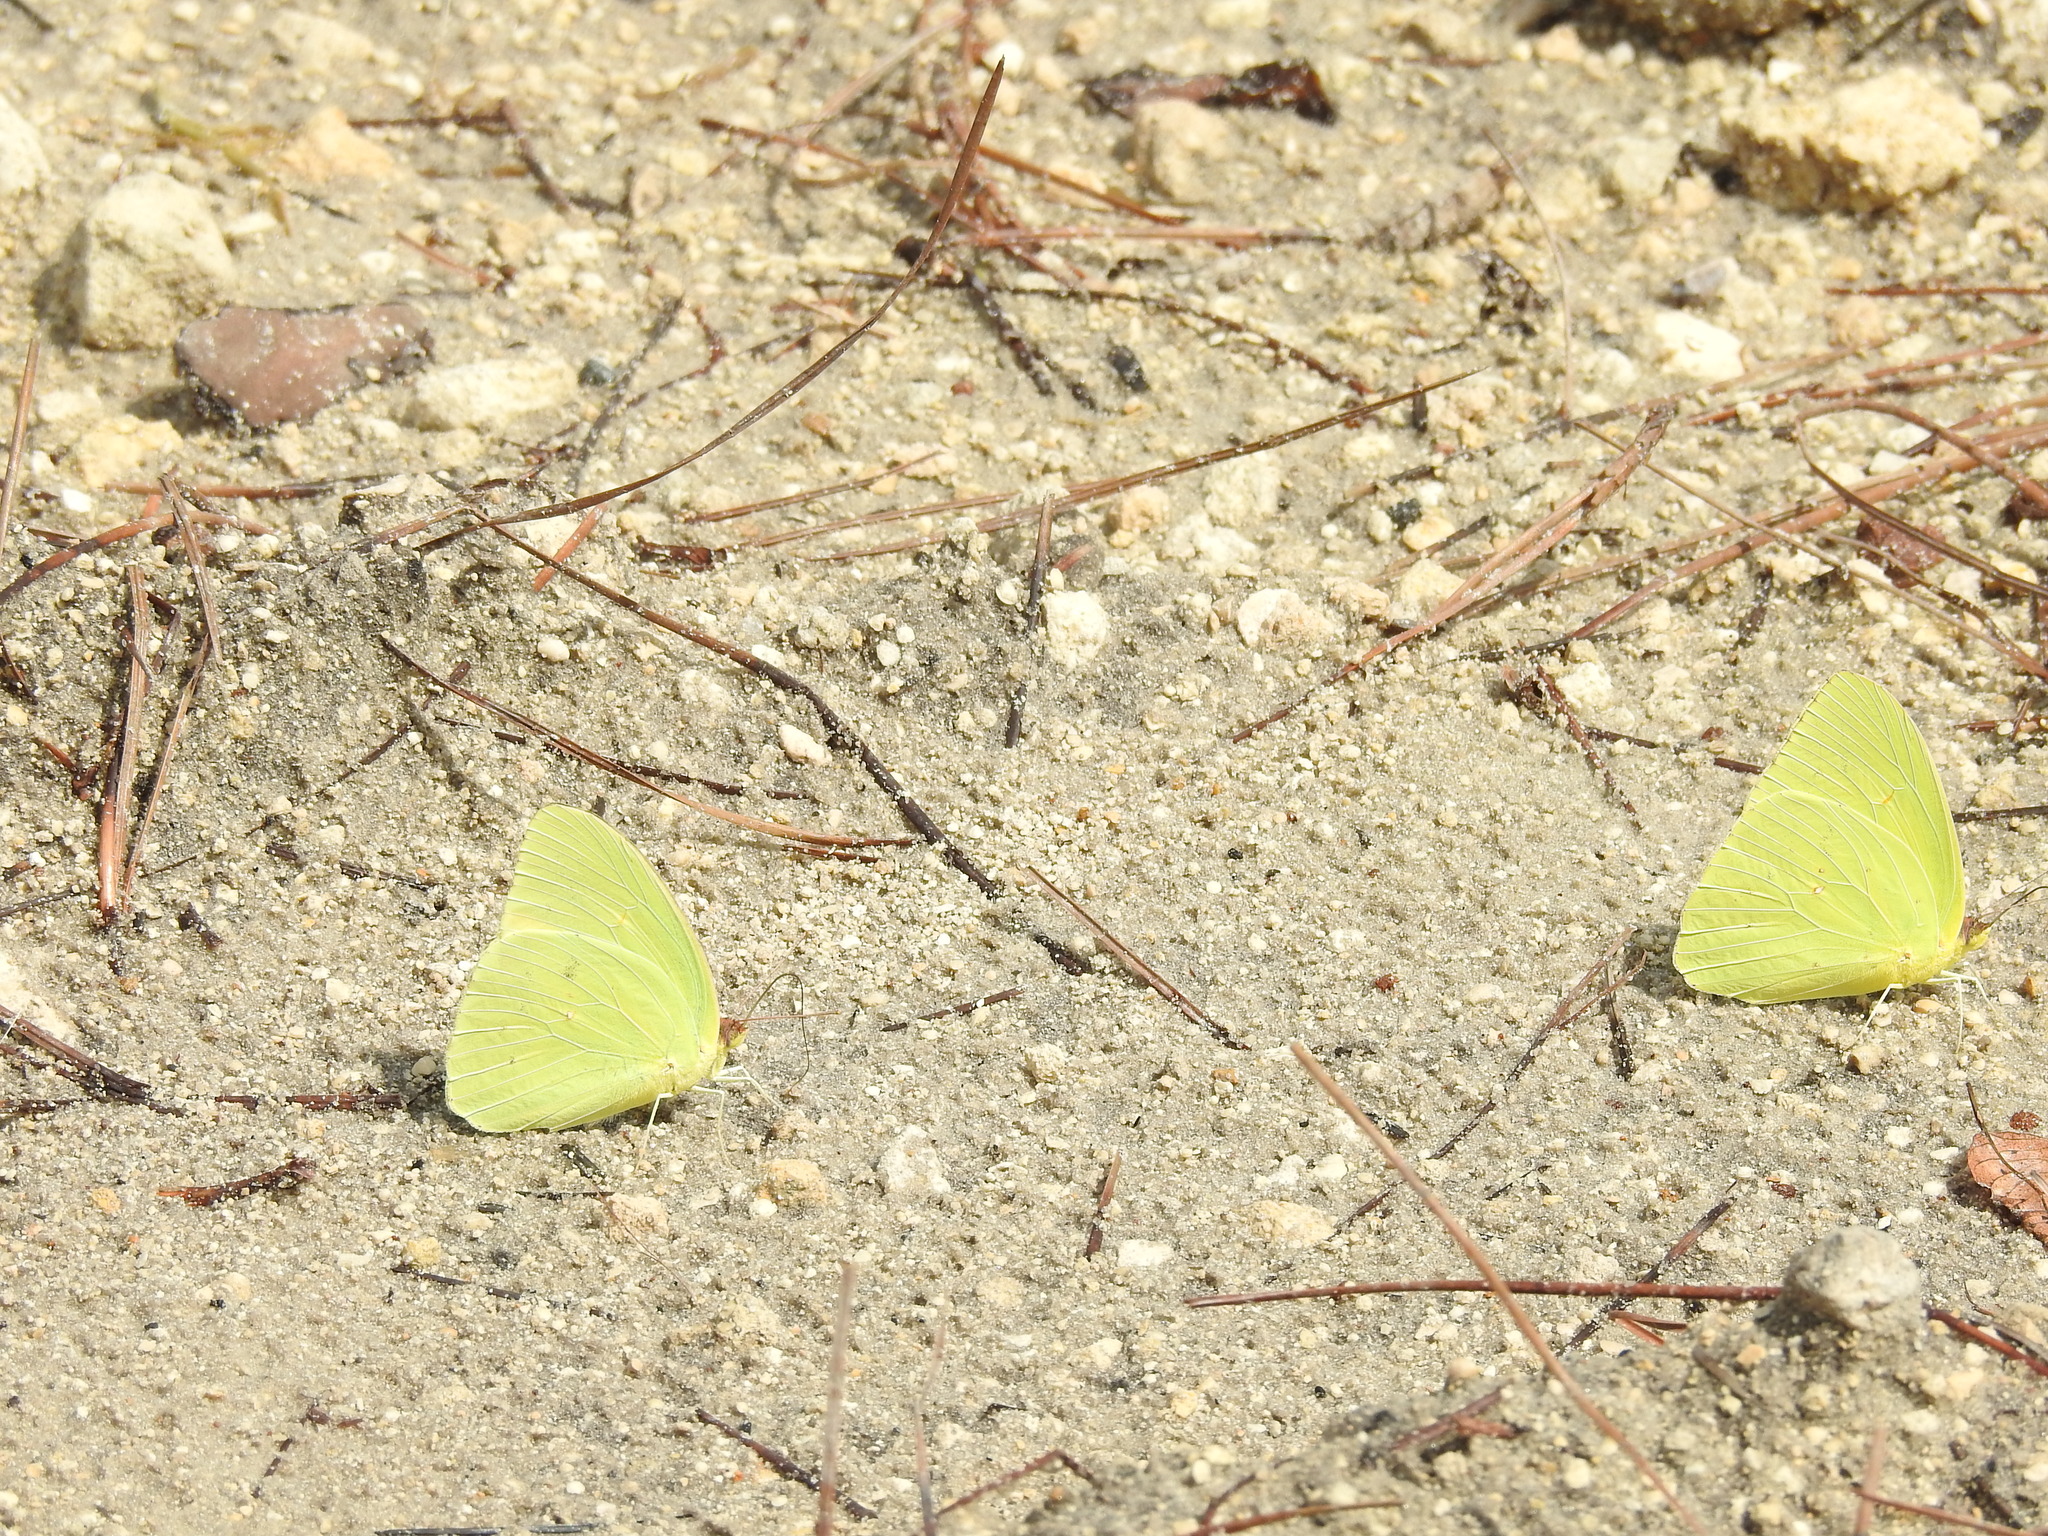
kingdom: Animalia
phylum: Arthropoda
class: Insecta
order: Lepidoptera
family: Pieridae
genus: Phoebis
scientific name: Phoebis sennae
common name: Cloudless sulphur
